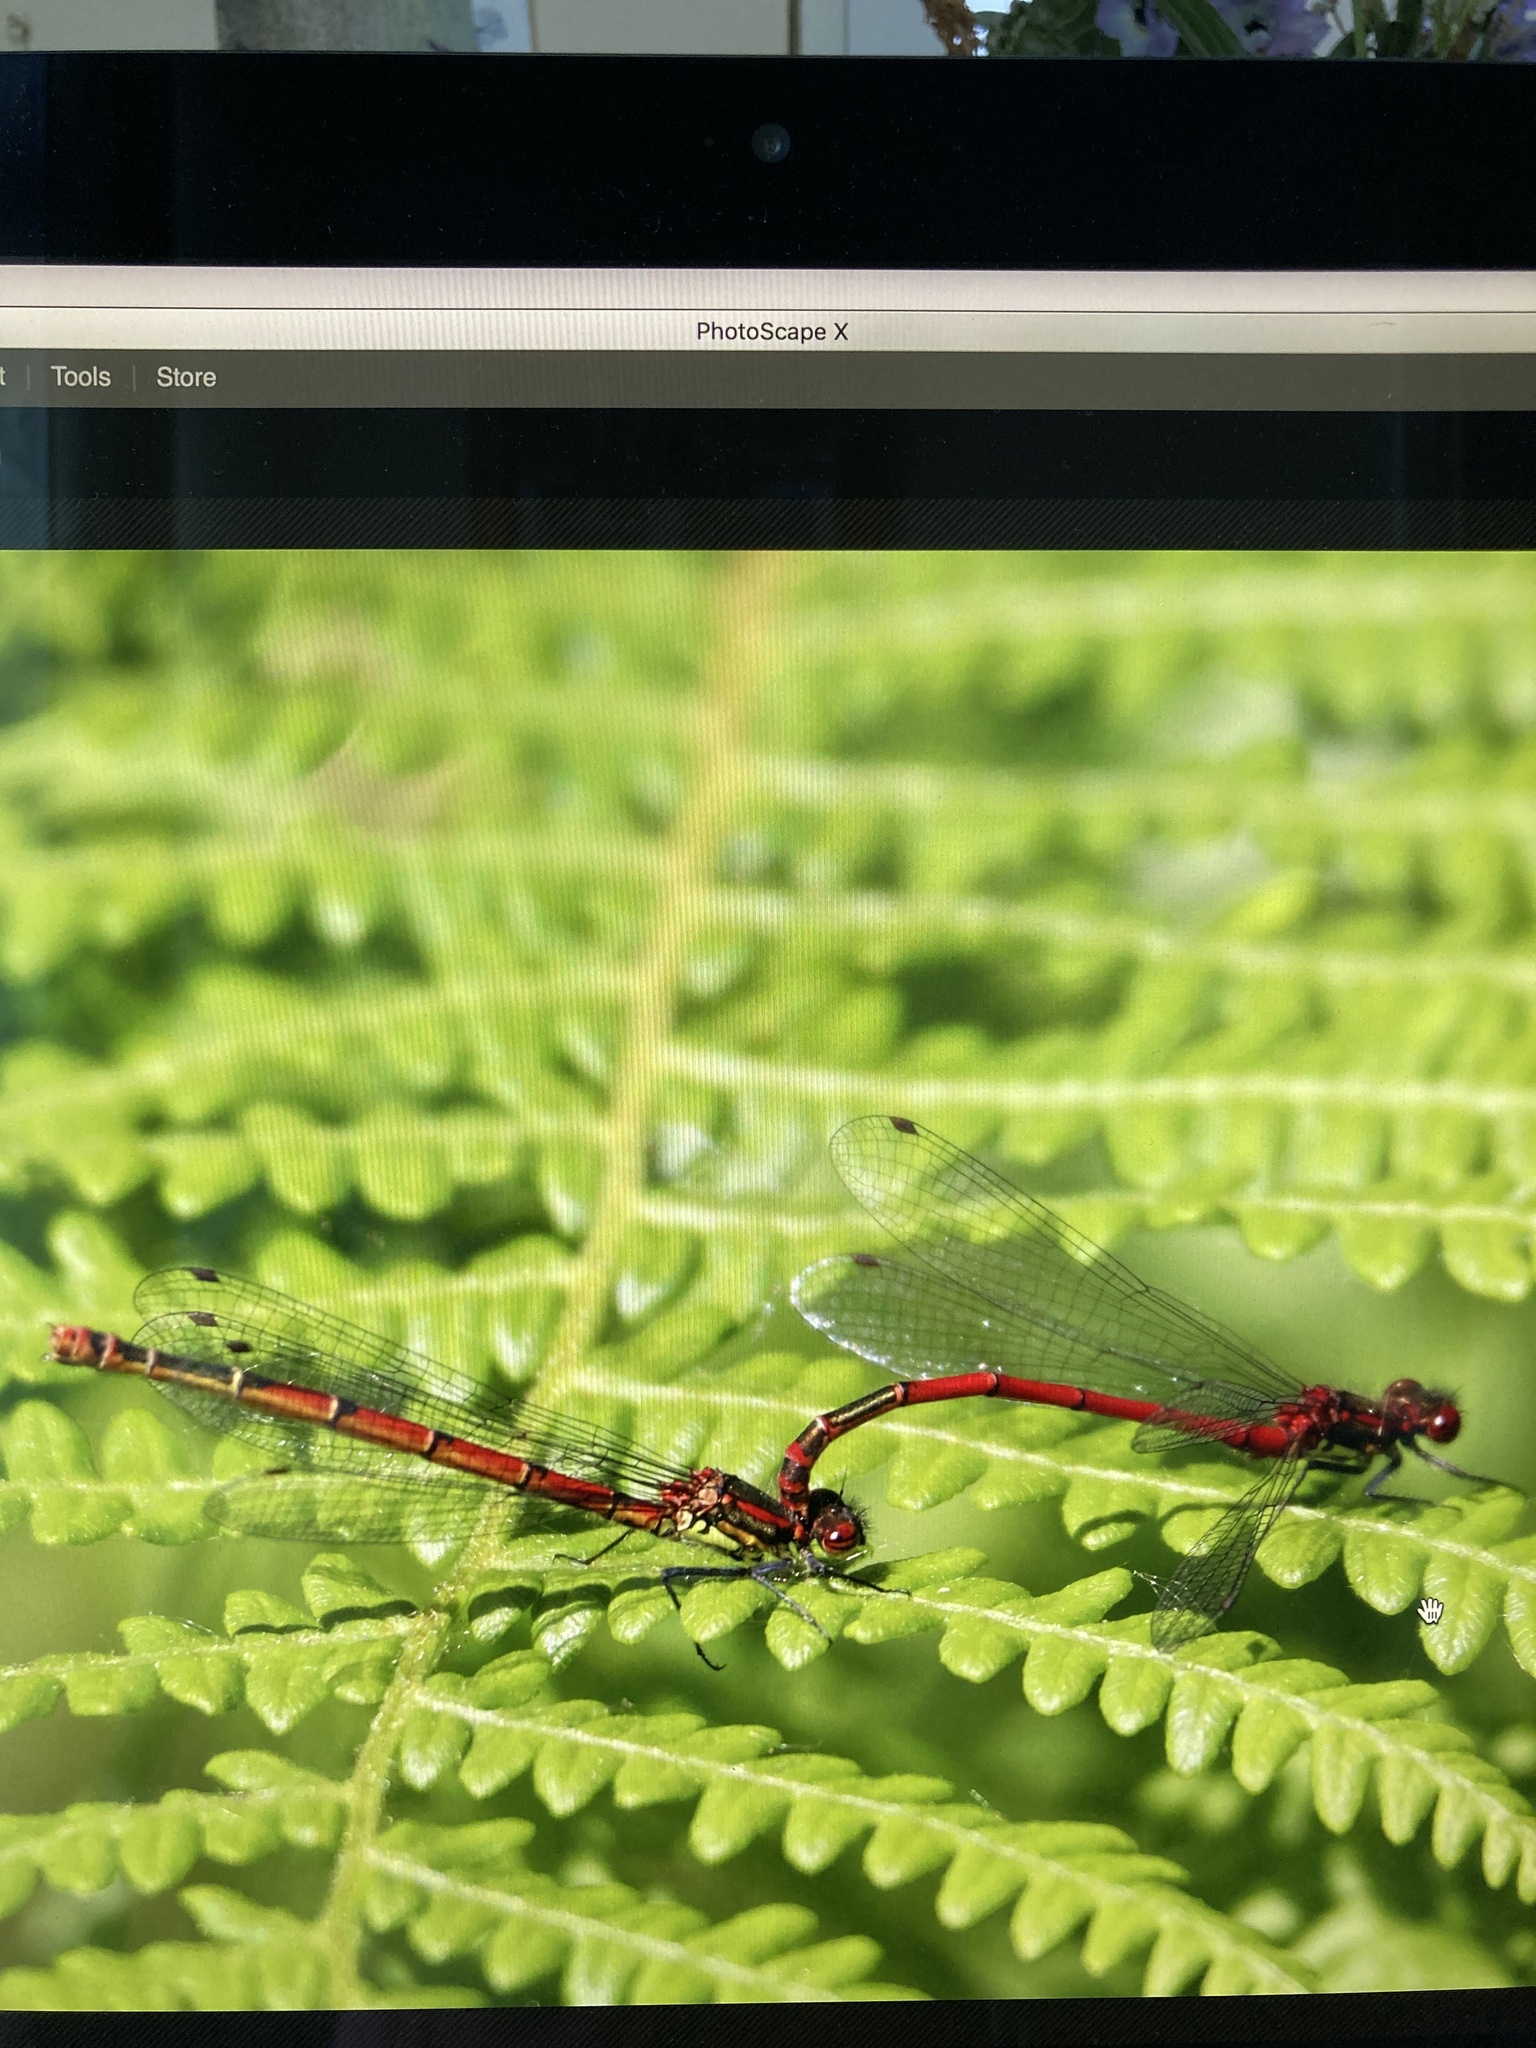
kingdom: Animalia
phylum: Arthropoda
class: Insecta
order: Odonata
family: Coenagrionidae
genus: Pyrrhosoma
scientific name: Pyrrhosoma nymphula
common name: Large red damsel
